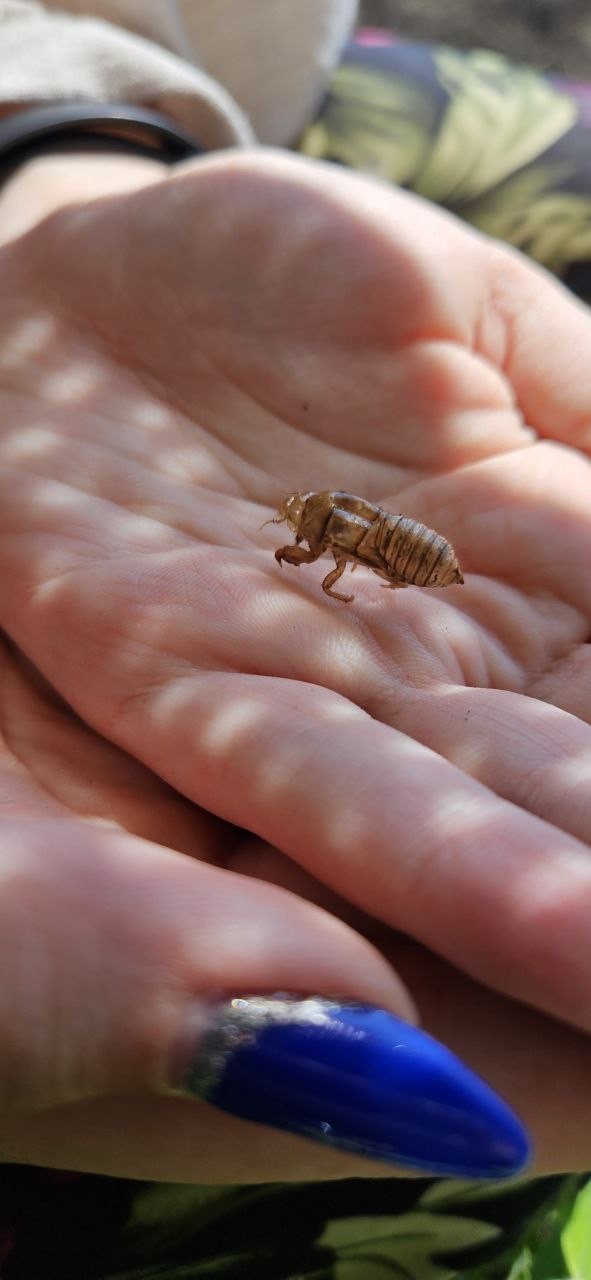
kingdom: Animalia
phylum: Arthropoda
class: Insecta
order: Hemiptera
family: Cicadidae
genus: Cicada
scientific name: Cicada orni
